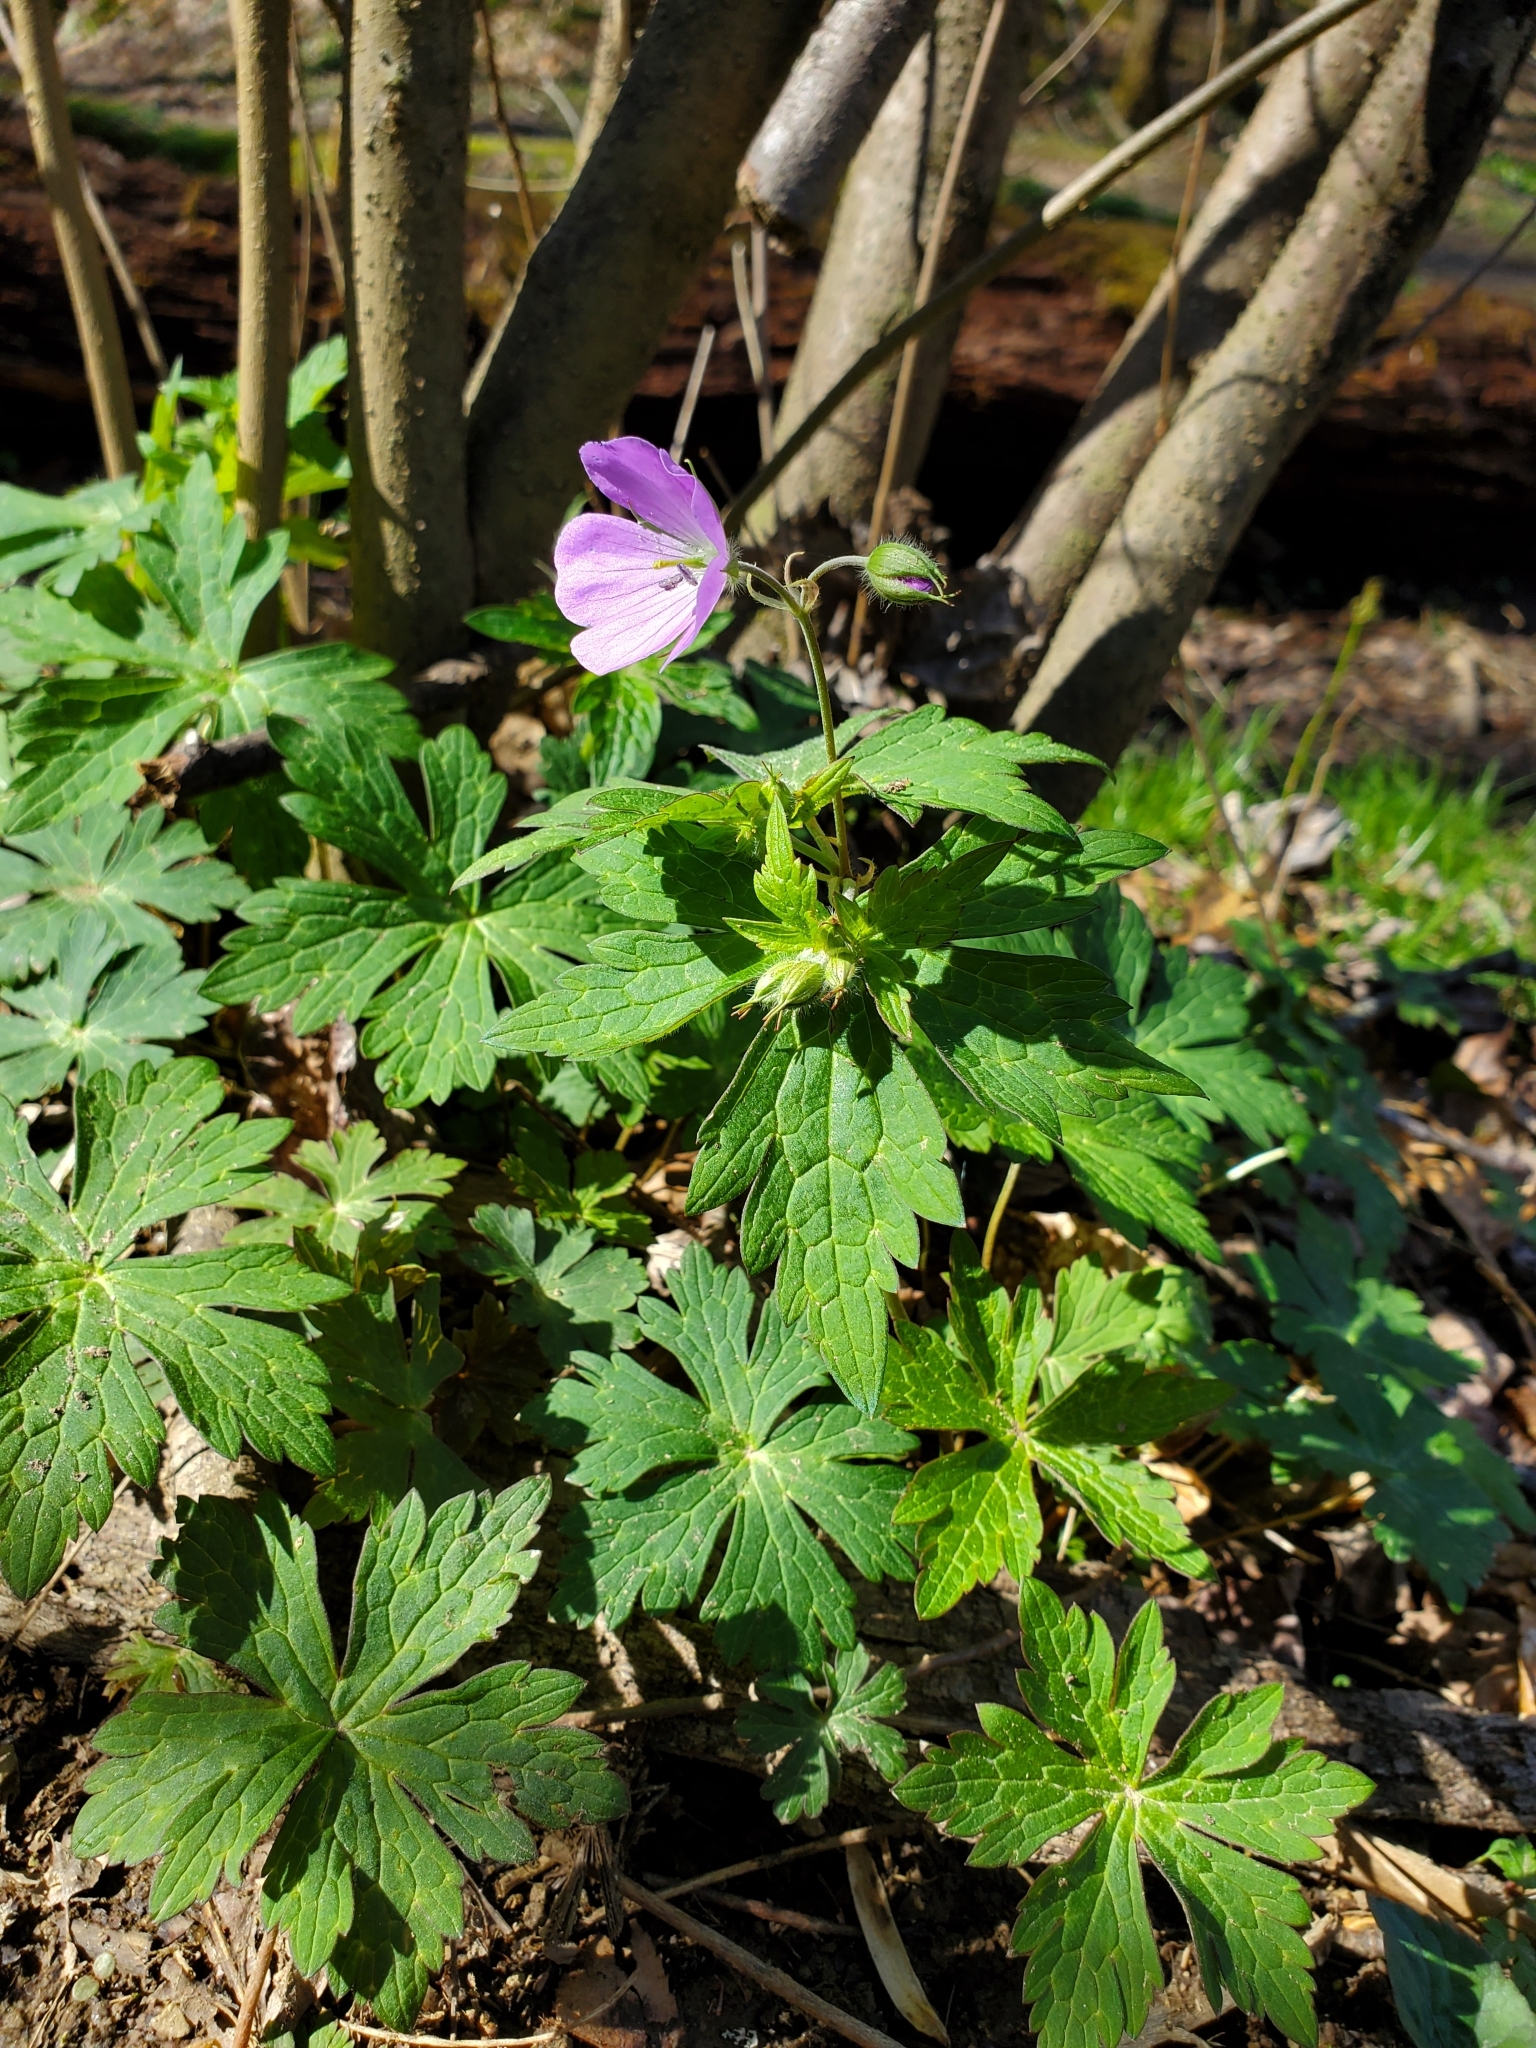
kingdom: Plantae
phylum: Tracheophyta
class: Magnoliopsida
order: Geraniales
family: Geraniaceae
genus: Geranium
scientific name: Geranium maculatum
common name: Spotted geranium
